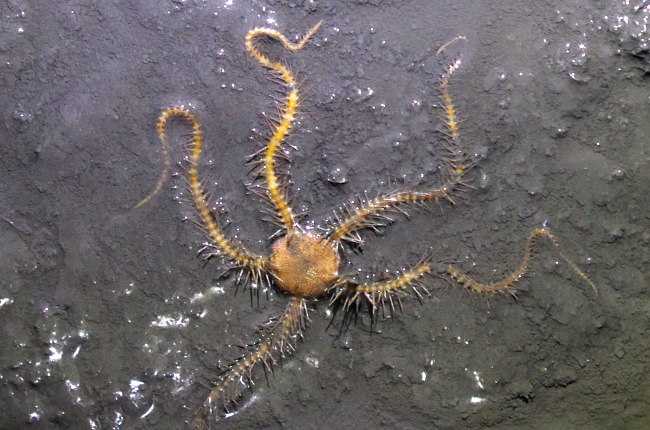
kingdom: Animalia
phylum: Echinodermata
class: Ophiuroidea
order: Ophiacanthida
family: Ophiacanthidae
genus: Ophiacantha
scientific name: Ophiacantha bidentata
